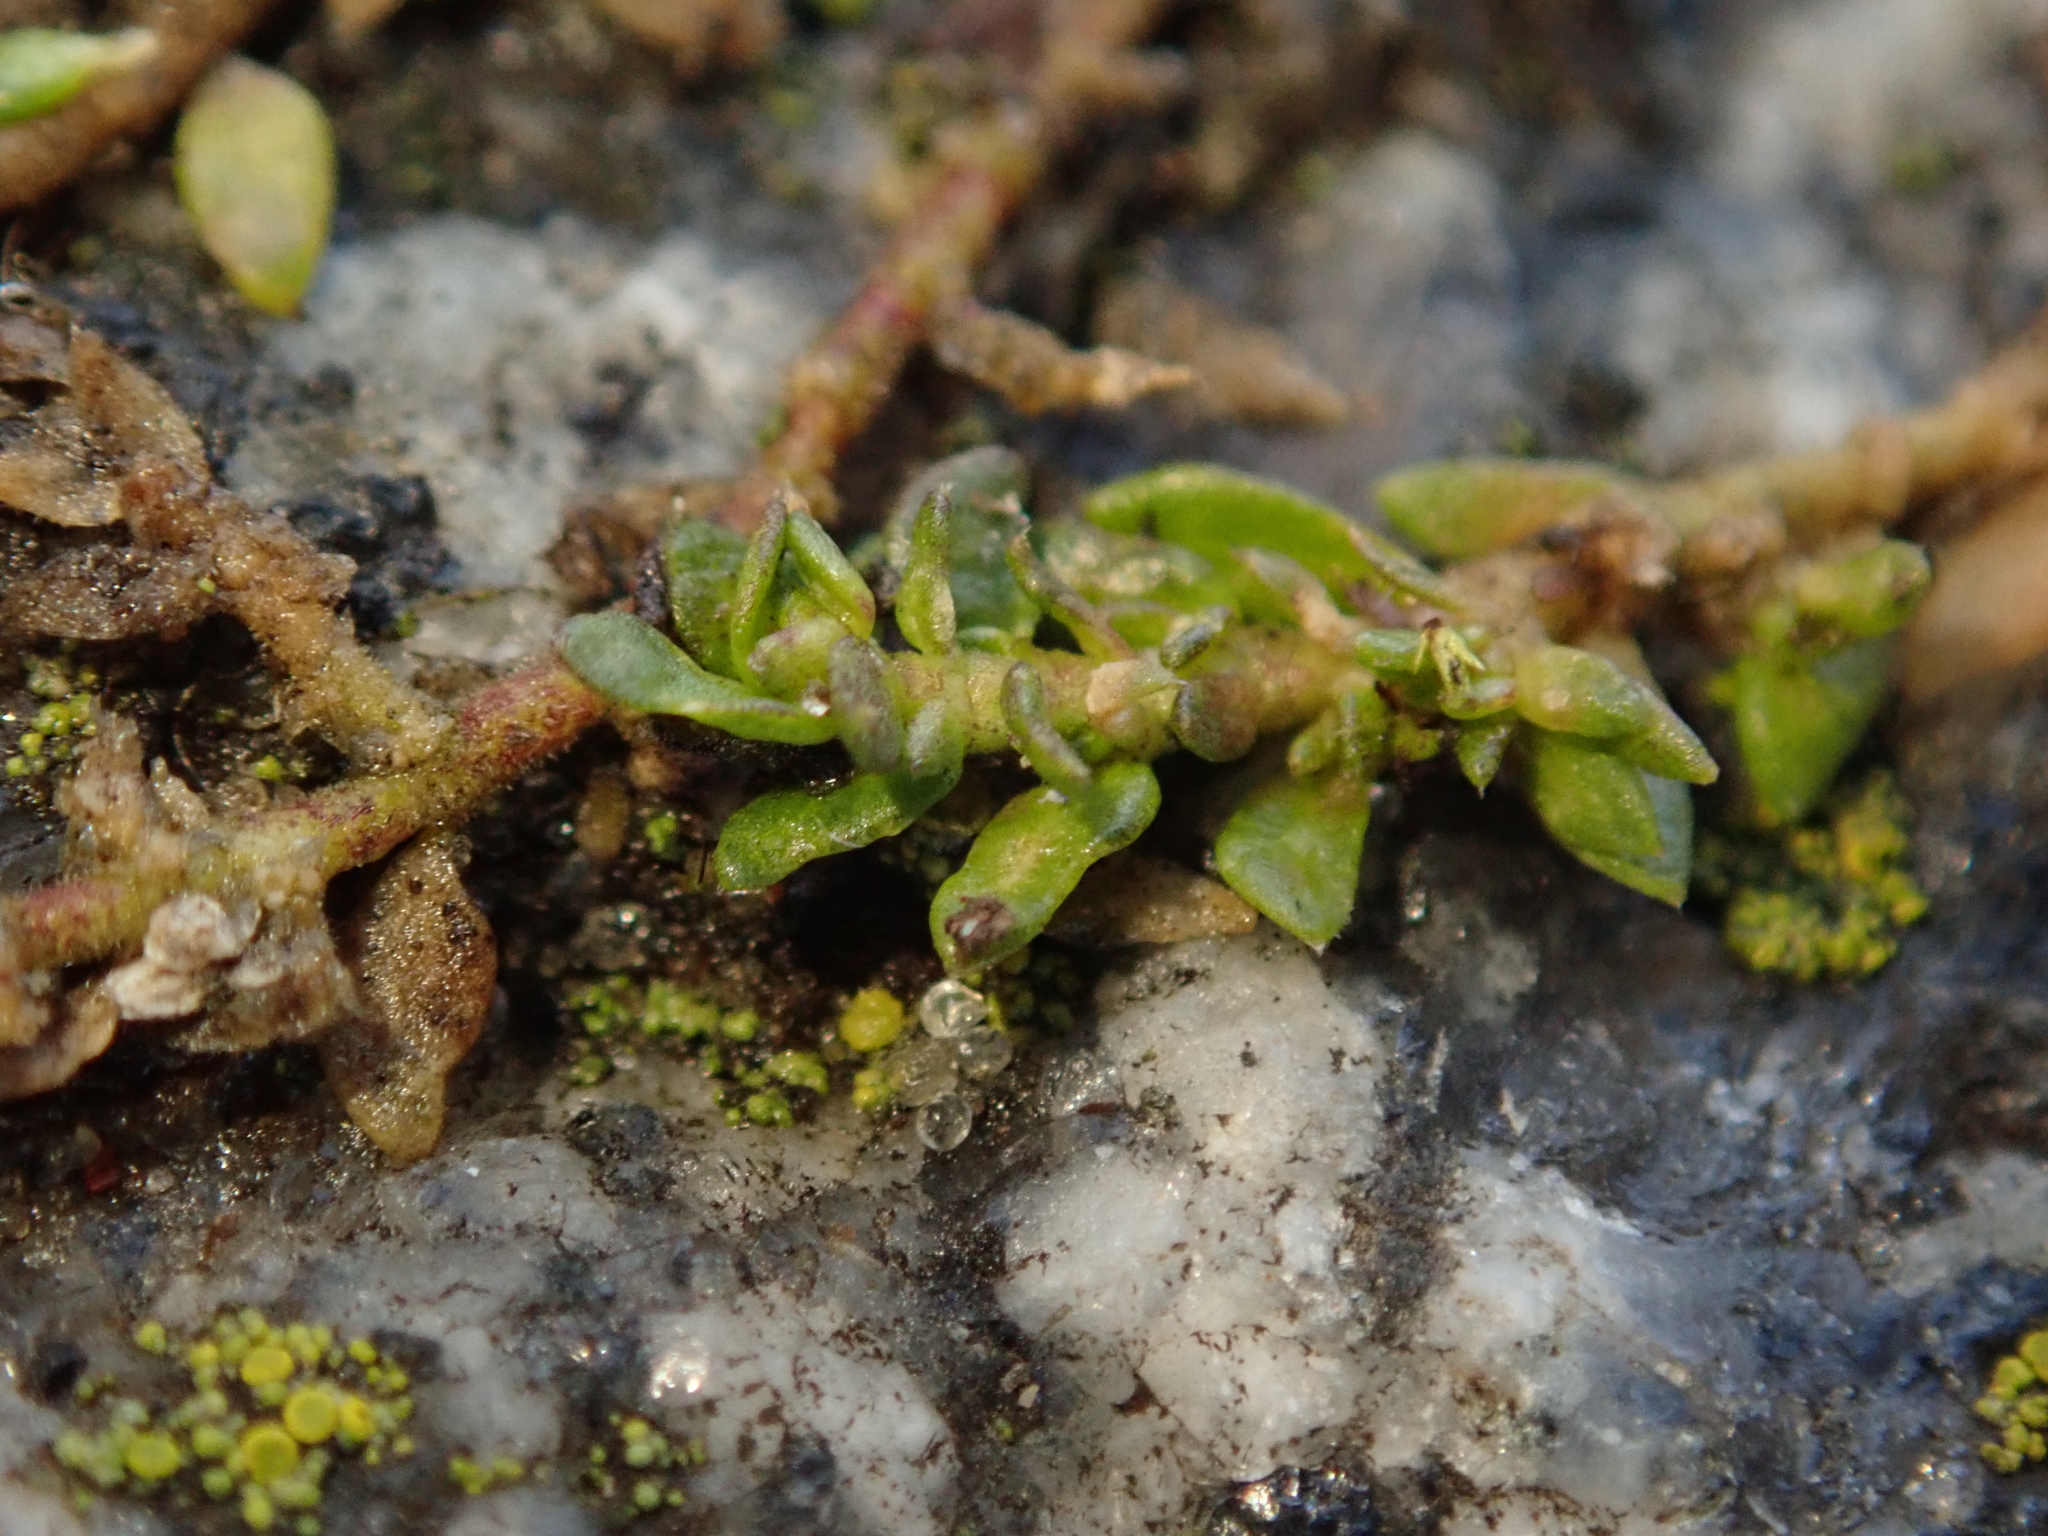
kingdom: Plantae
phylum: Tracheophyta
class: Magnoliopsida
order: Caryophyllales
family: Caryophyllaceae
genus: Herniaria
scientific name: Herniaria glabra
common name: Smooth rupturewort
